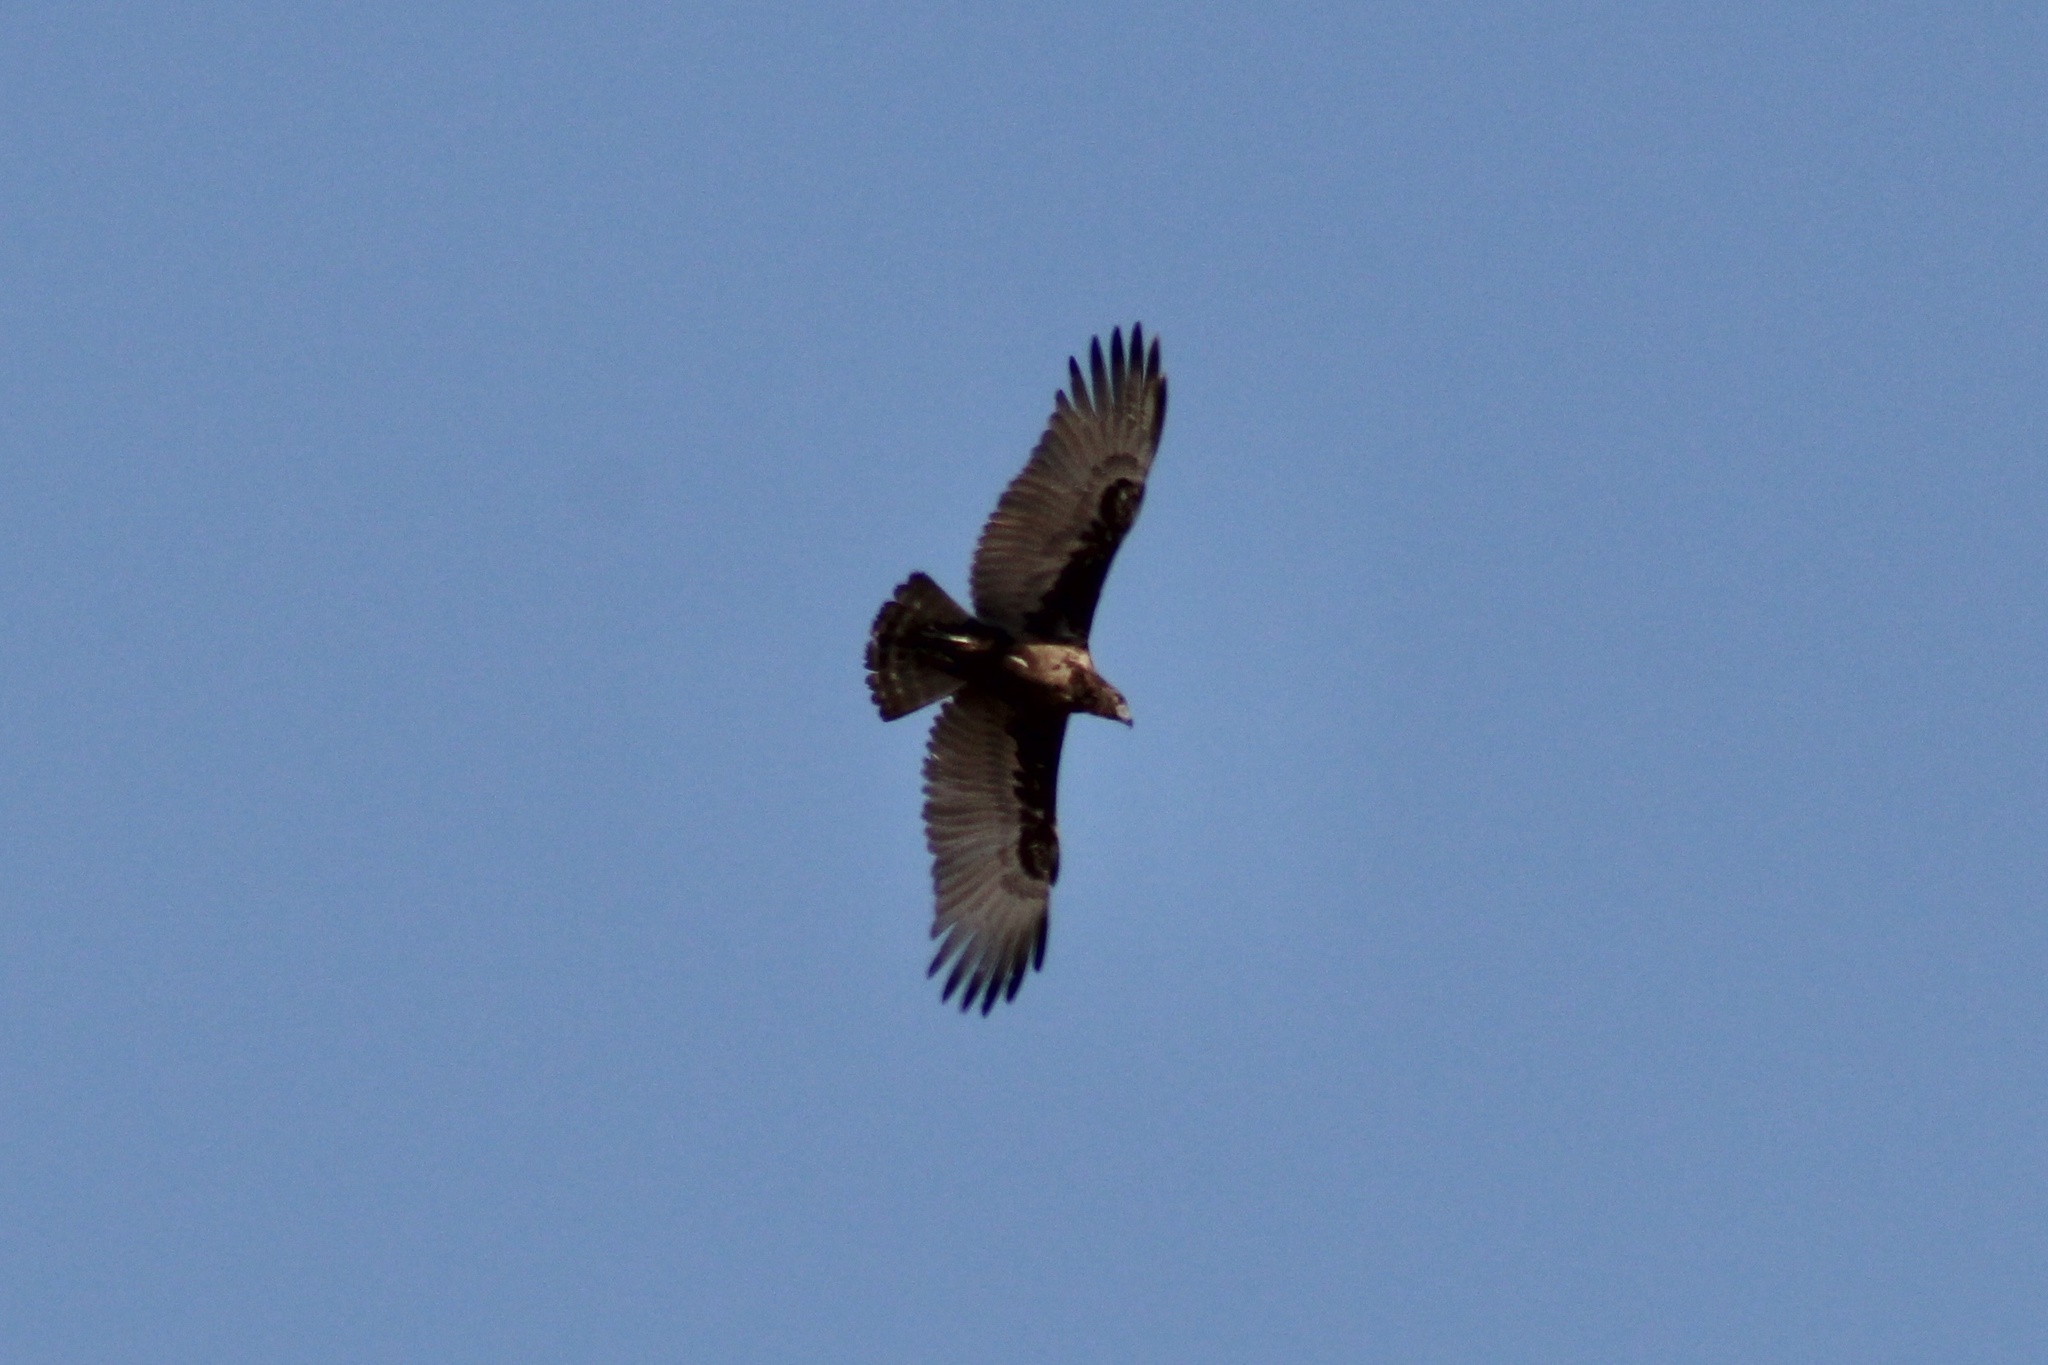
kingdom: Animalia
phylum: Chordata
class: Aves
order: Accipitriformes
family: Accipitridae
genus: Circaetus
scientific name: Circaetus cinereus
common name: Brown snake eagle
